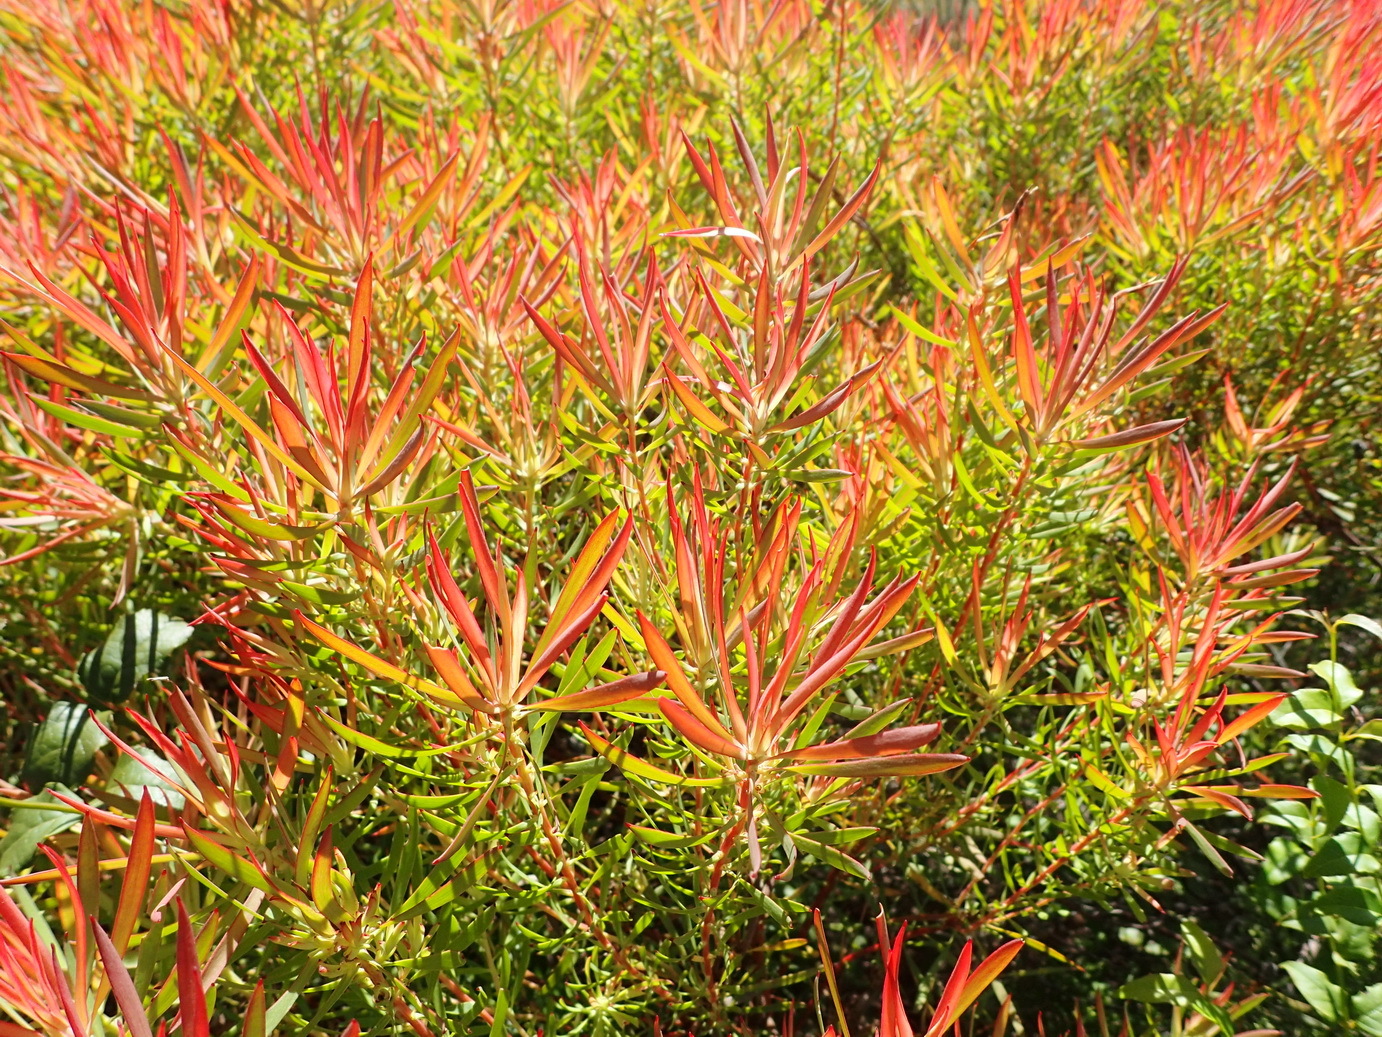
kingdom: Plantae
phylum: Tracheophyta
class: Magnoliopsida
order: Proteales
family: Proteaceae
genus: Leucadendron
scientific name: Leucadendron salignum
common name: Common sunshine conebush
